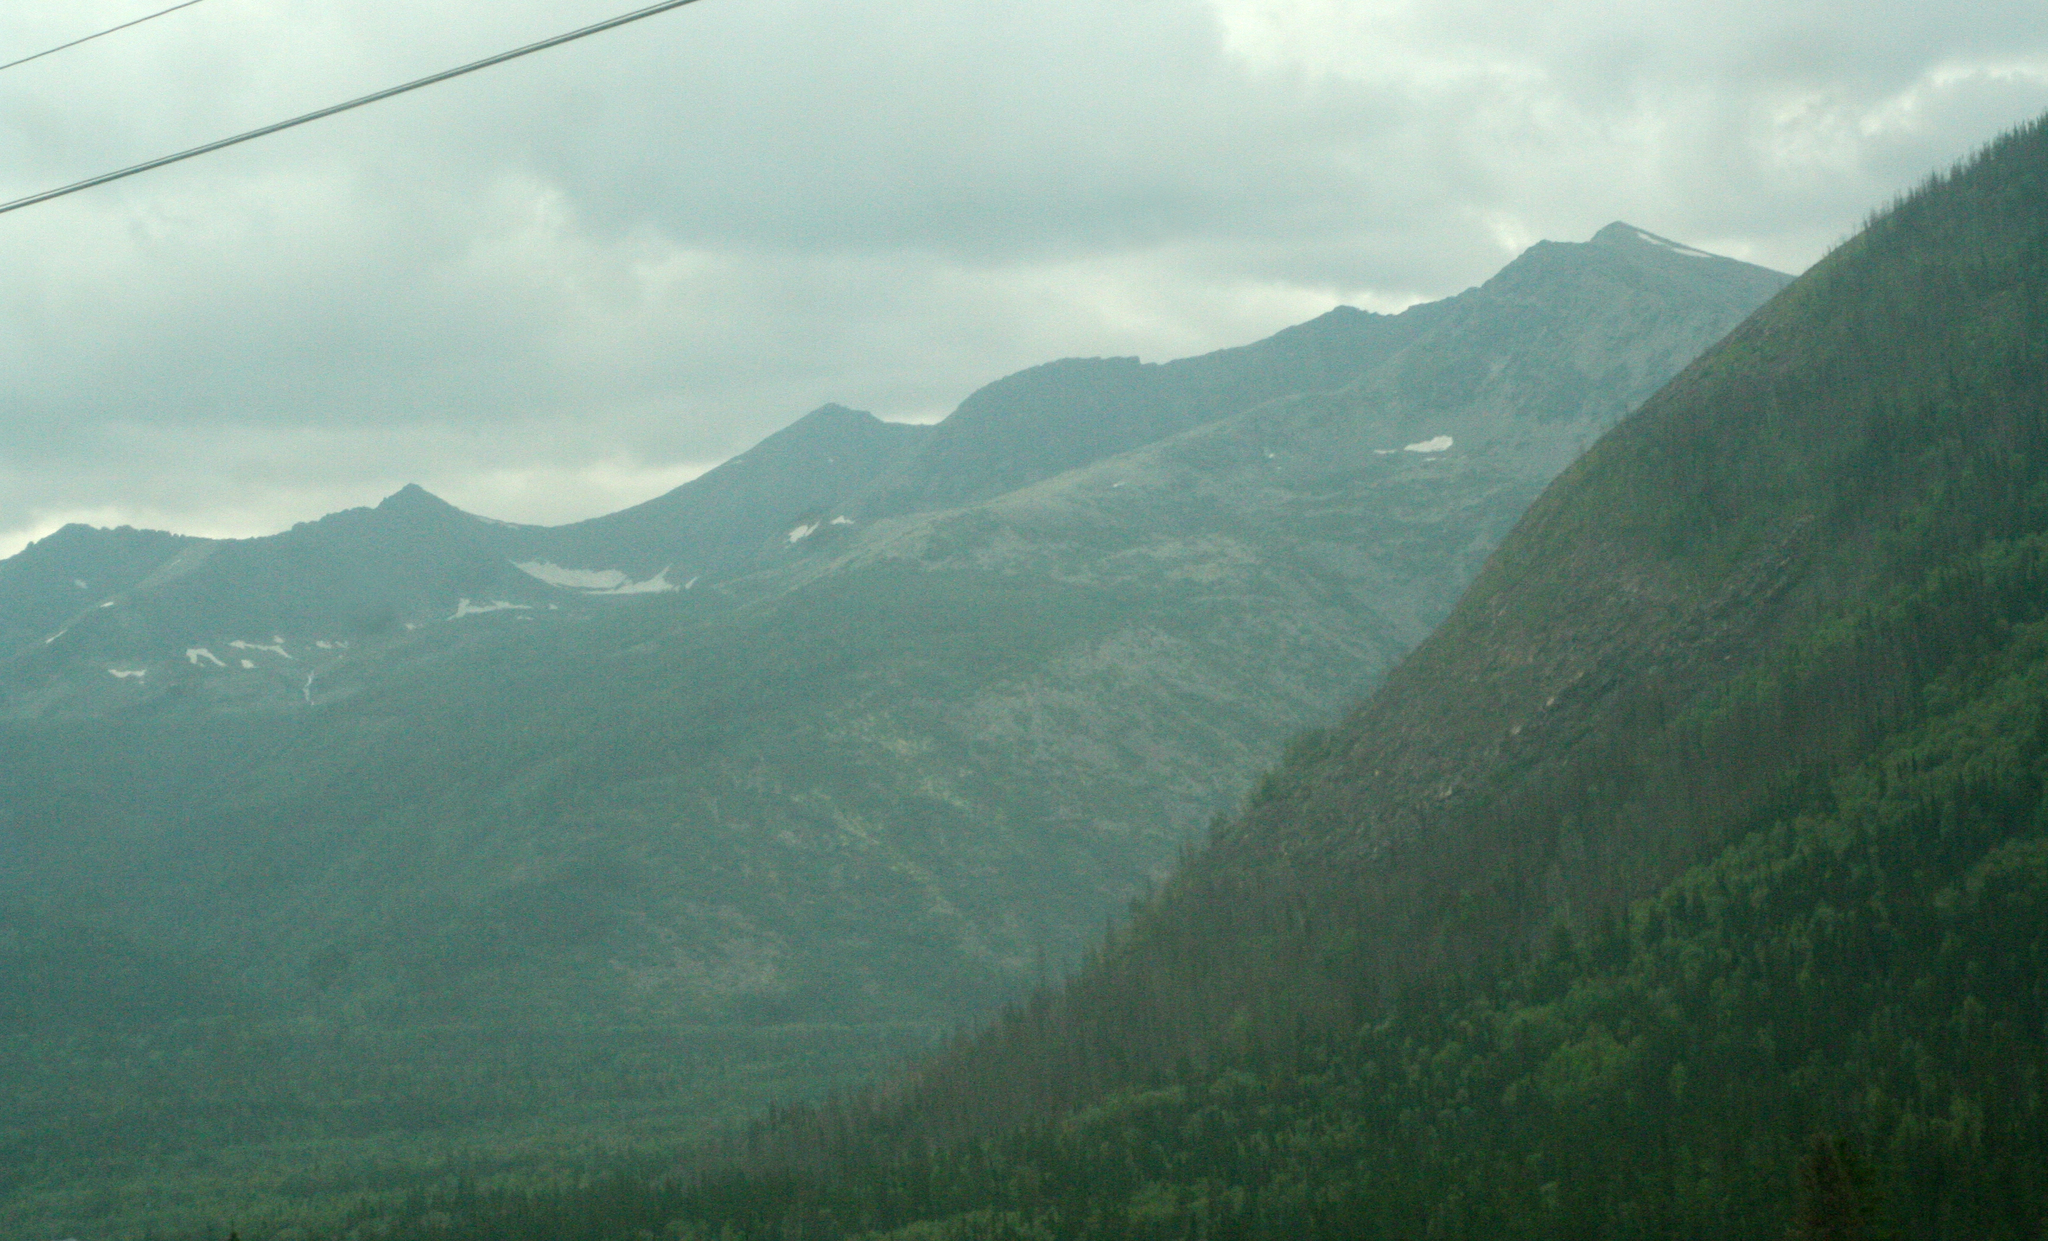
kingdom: Plantae
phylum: Tracheophyta
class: Pinopsida
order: Pinales
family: Pinaceae
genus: Picea
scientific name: Picea obovata
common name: Siberian spruce
